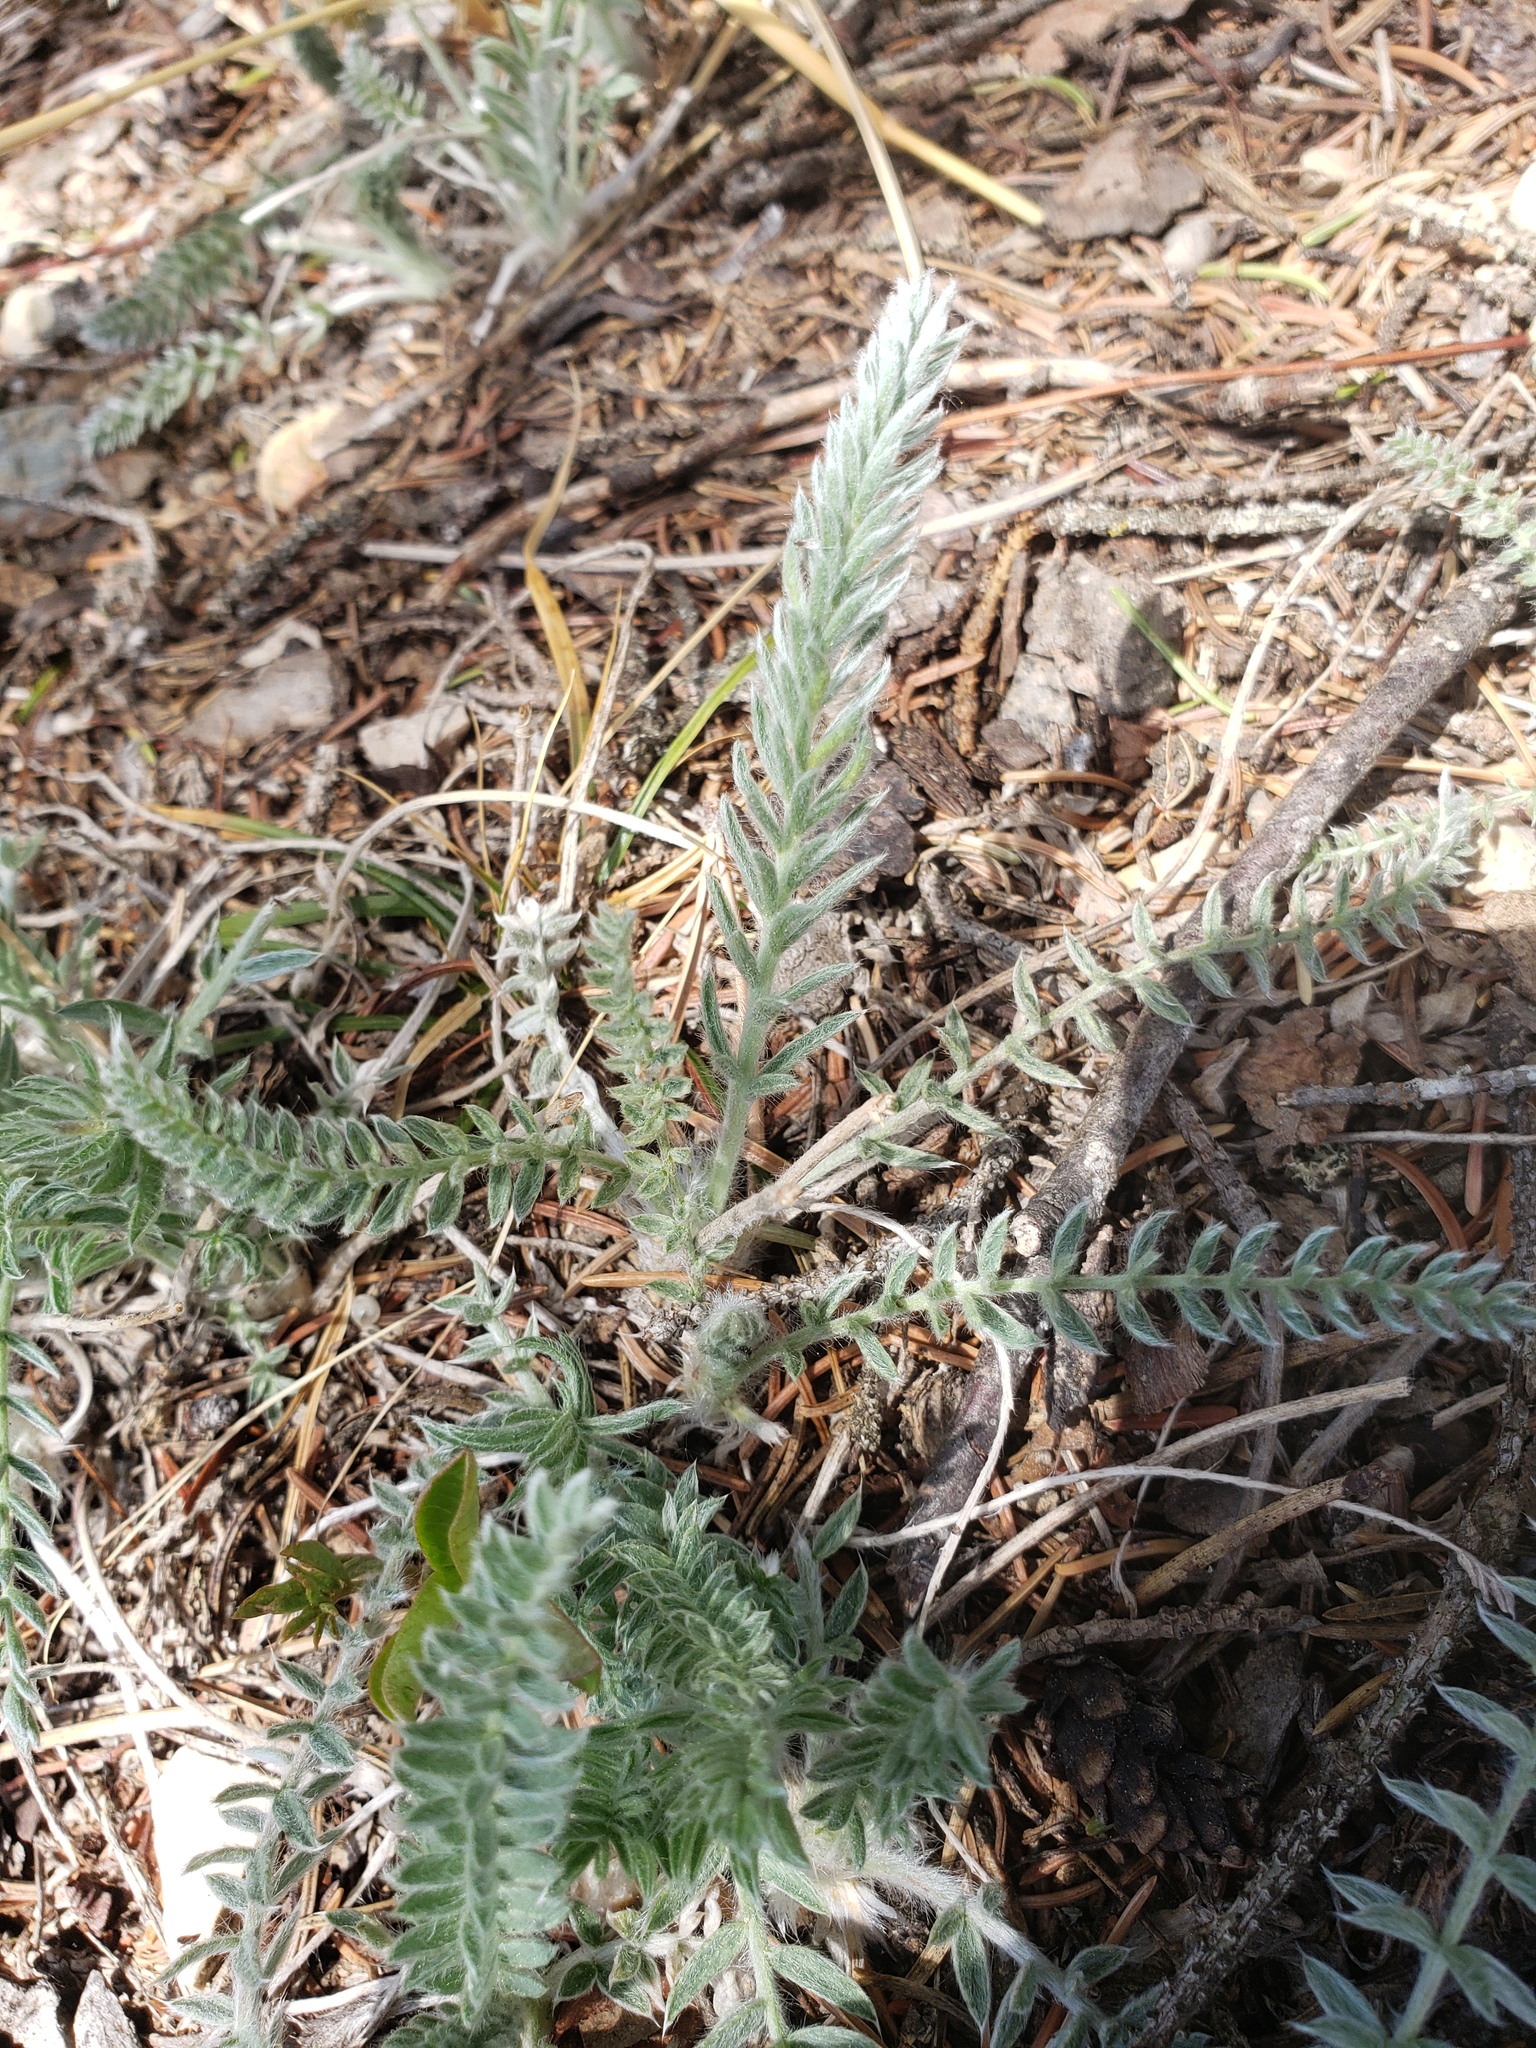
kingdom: Plantae
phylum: Tracheophyta
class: Magnoliopsida
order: Fabales
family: Fabaceae
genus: Oxytropis
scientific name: Oxytropis splendens
